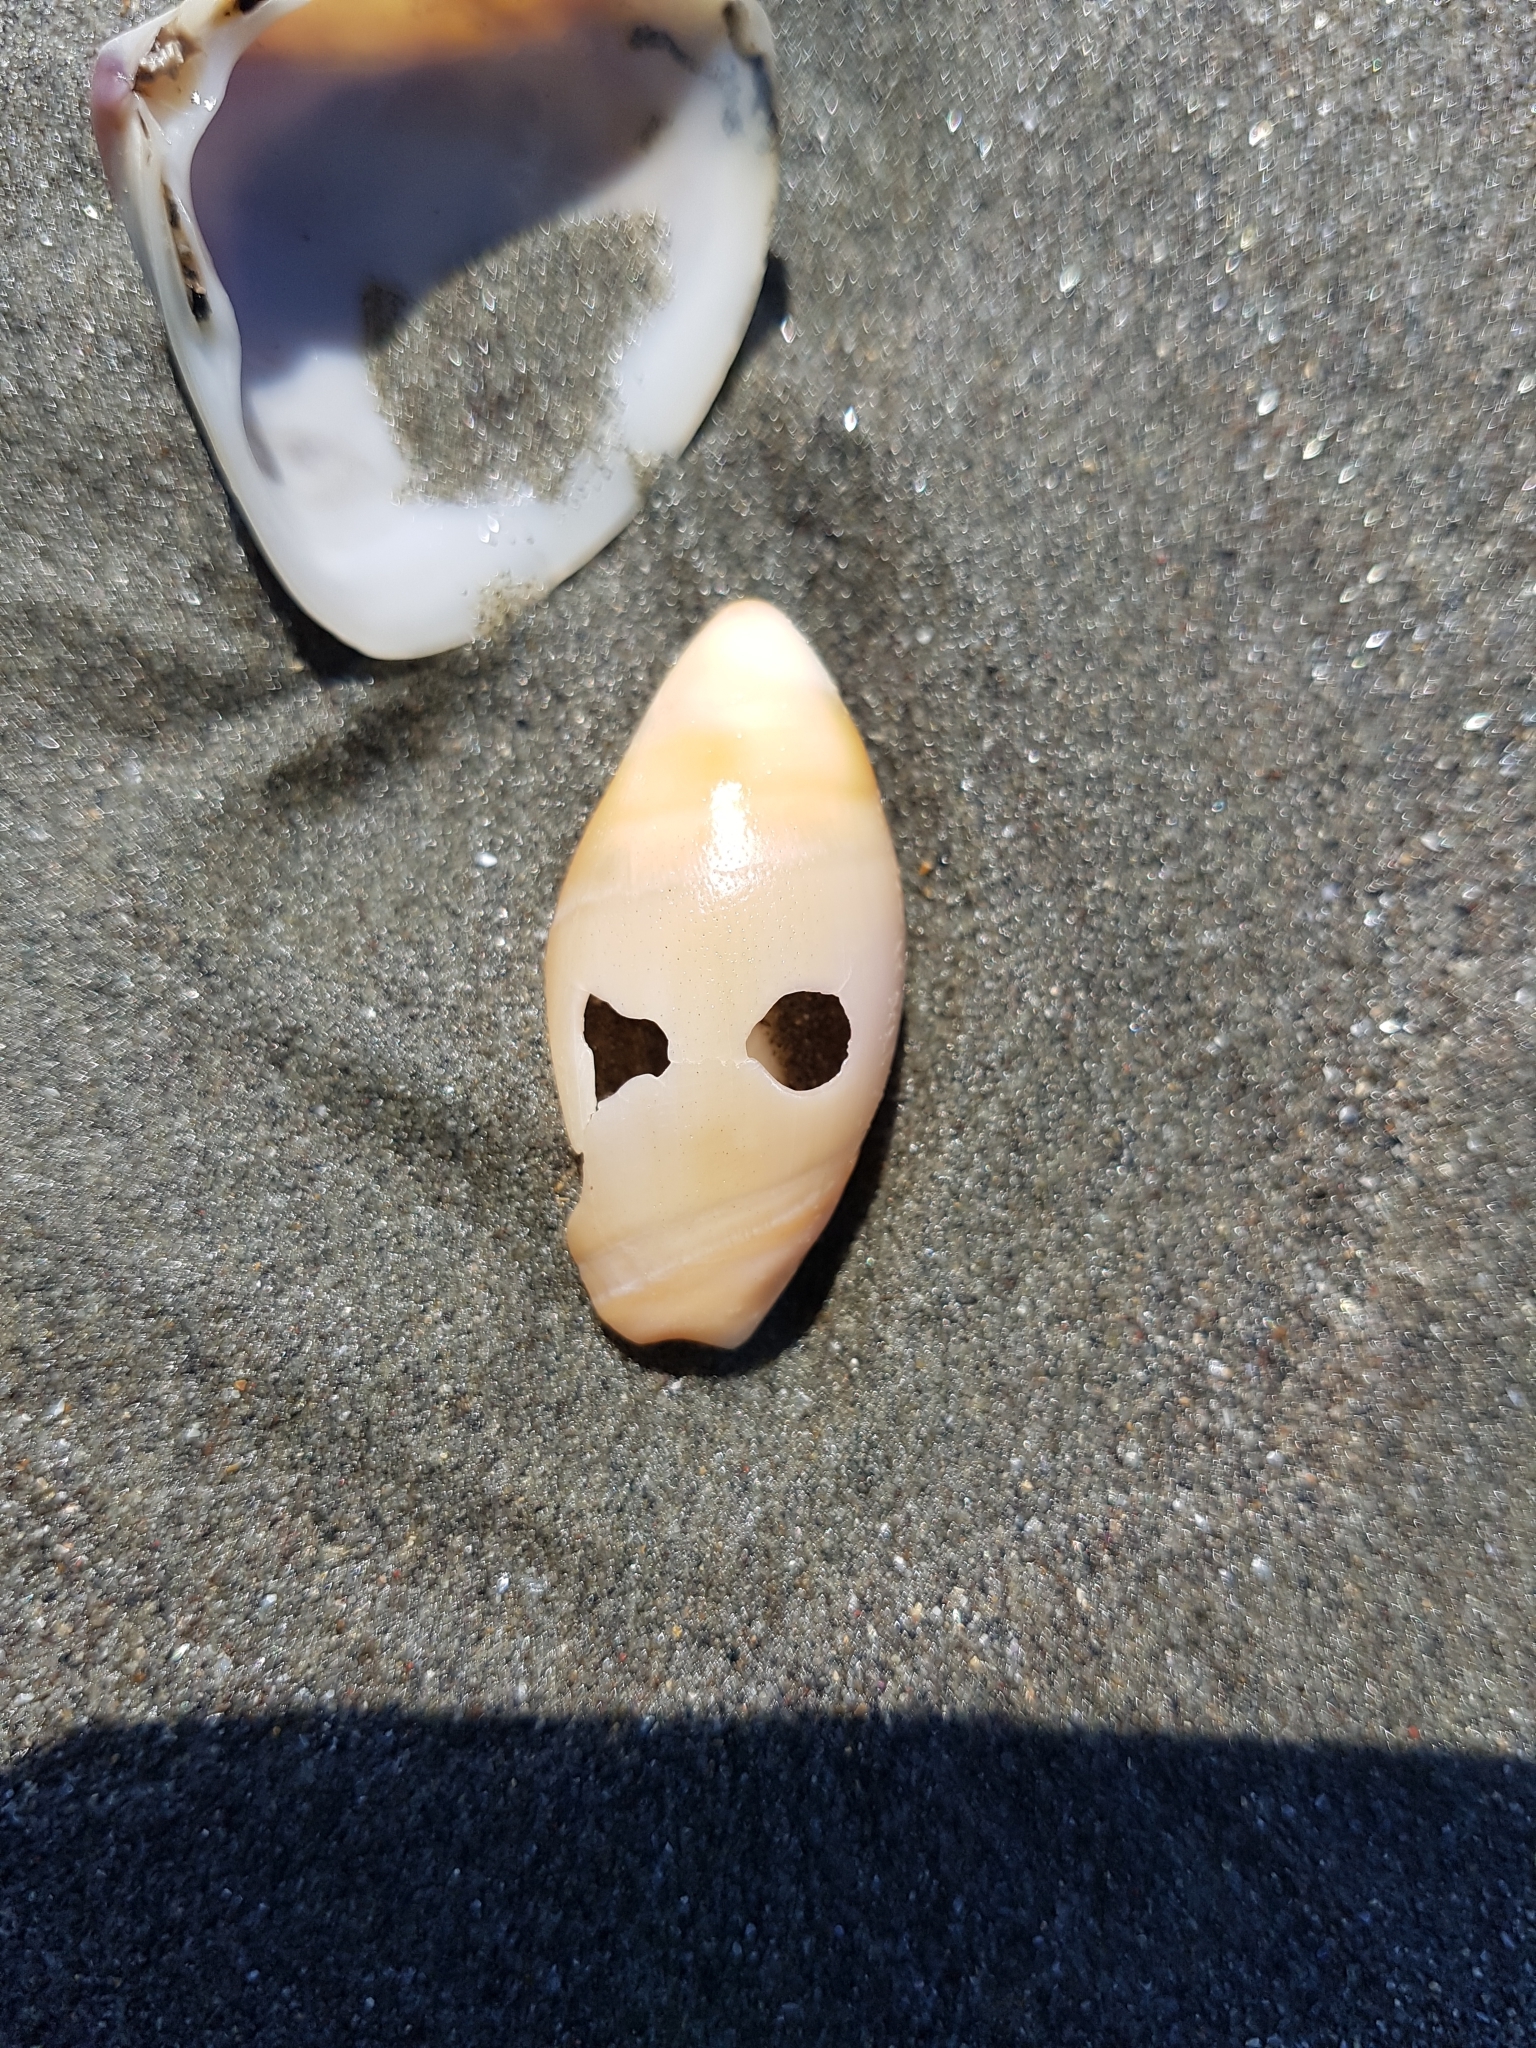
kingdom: Animalia
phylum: Mollusca
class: Gastropoda
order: Neogastropoda
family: Ancillariidae
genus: Amalda
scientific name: Amalda mucronata
